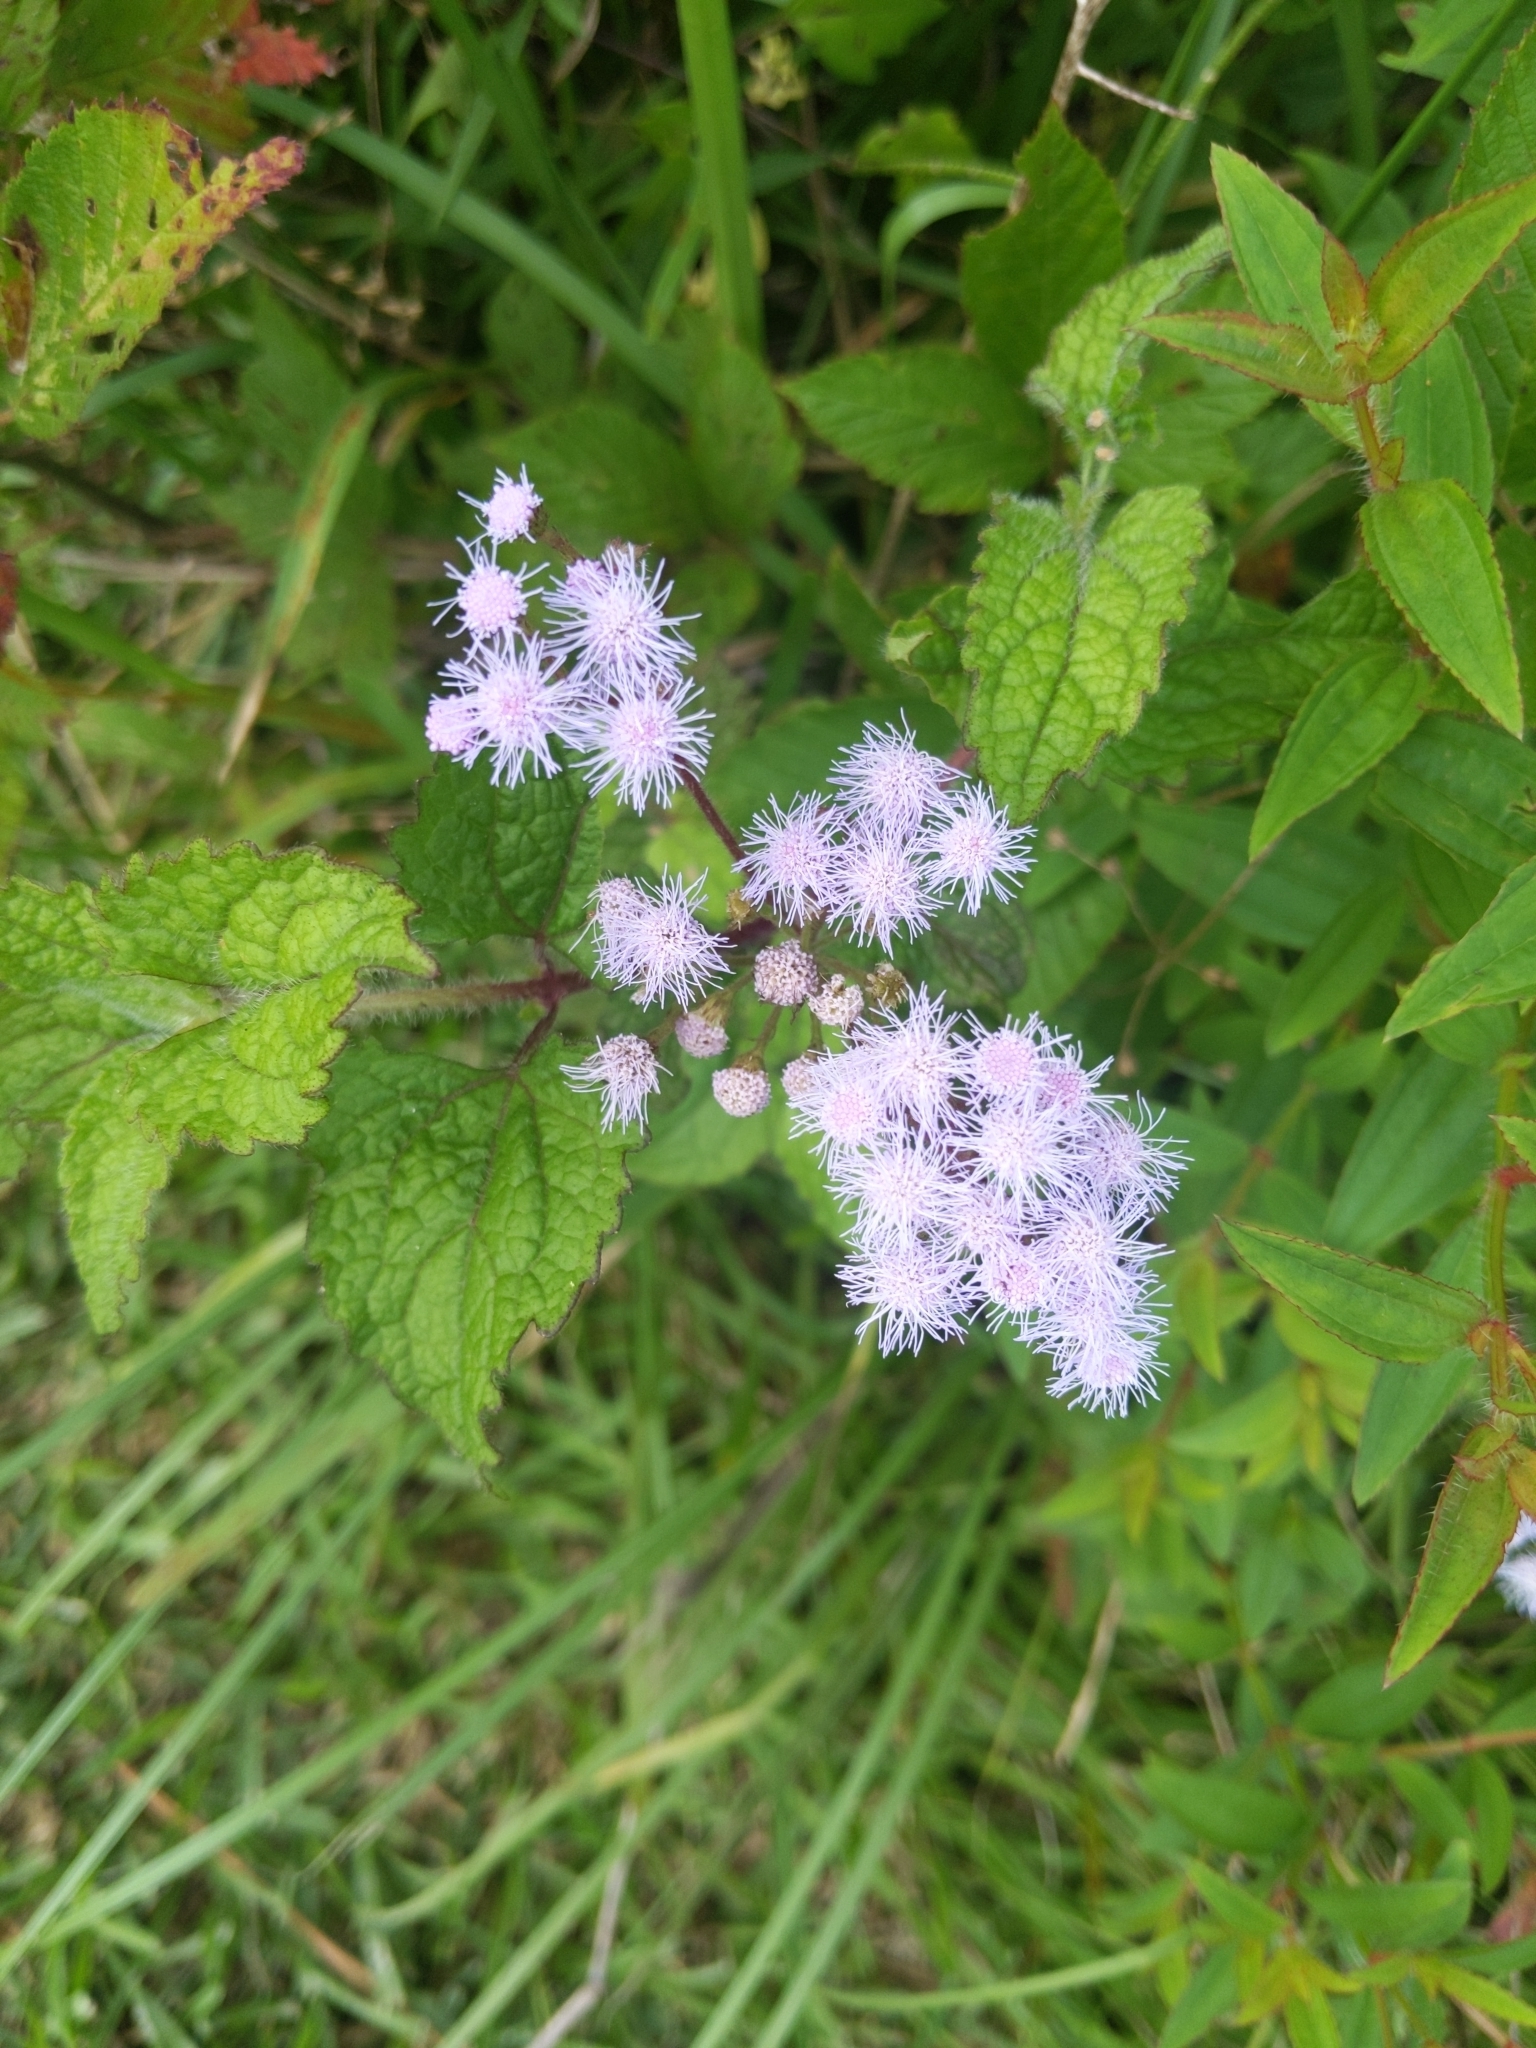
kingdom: Plantae
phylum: Tracheophyta
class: Magnoliopsida
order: Asterales
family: Asteraceae
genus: Conoclinium
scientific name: Conoclinium coelestinum
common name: Blue mistflower
